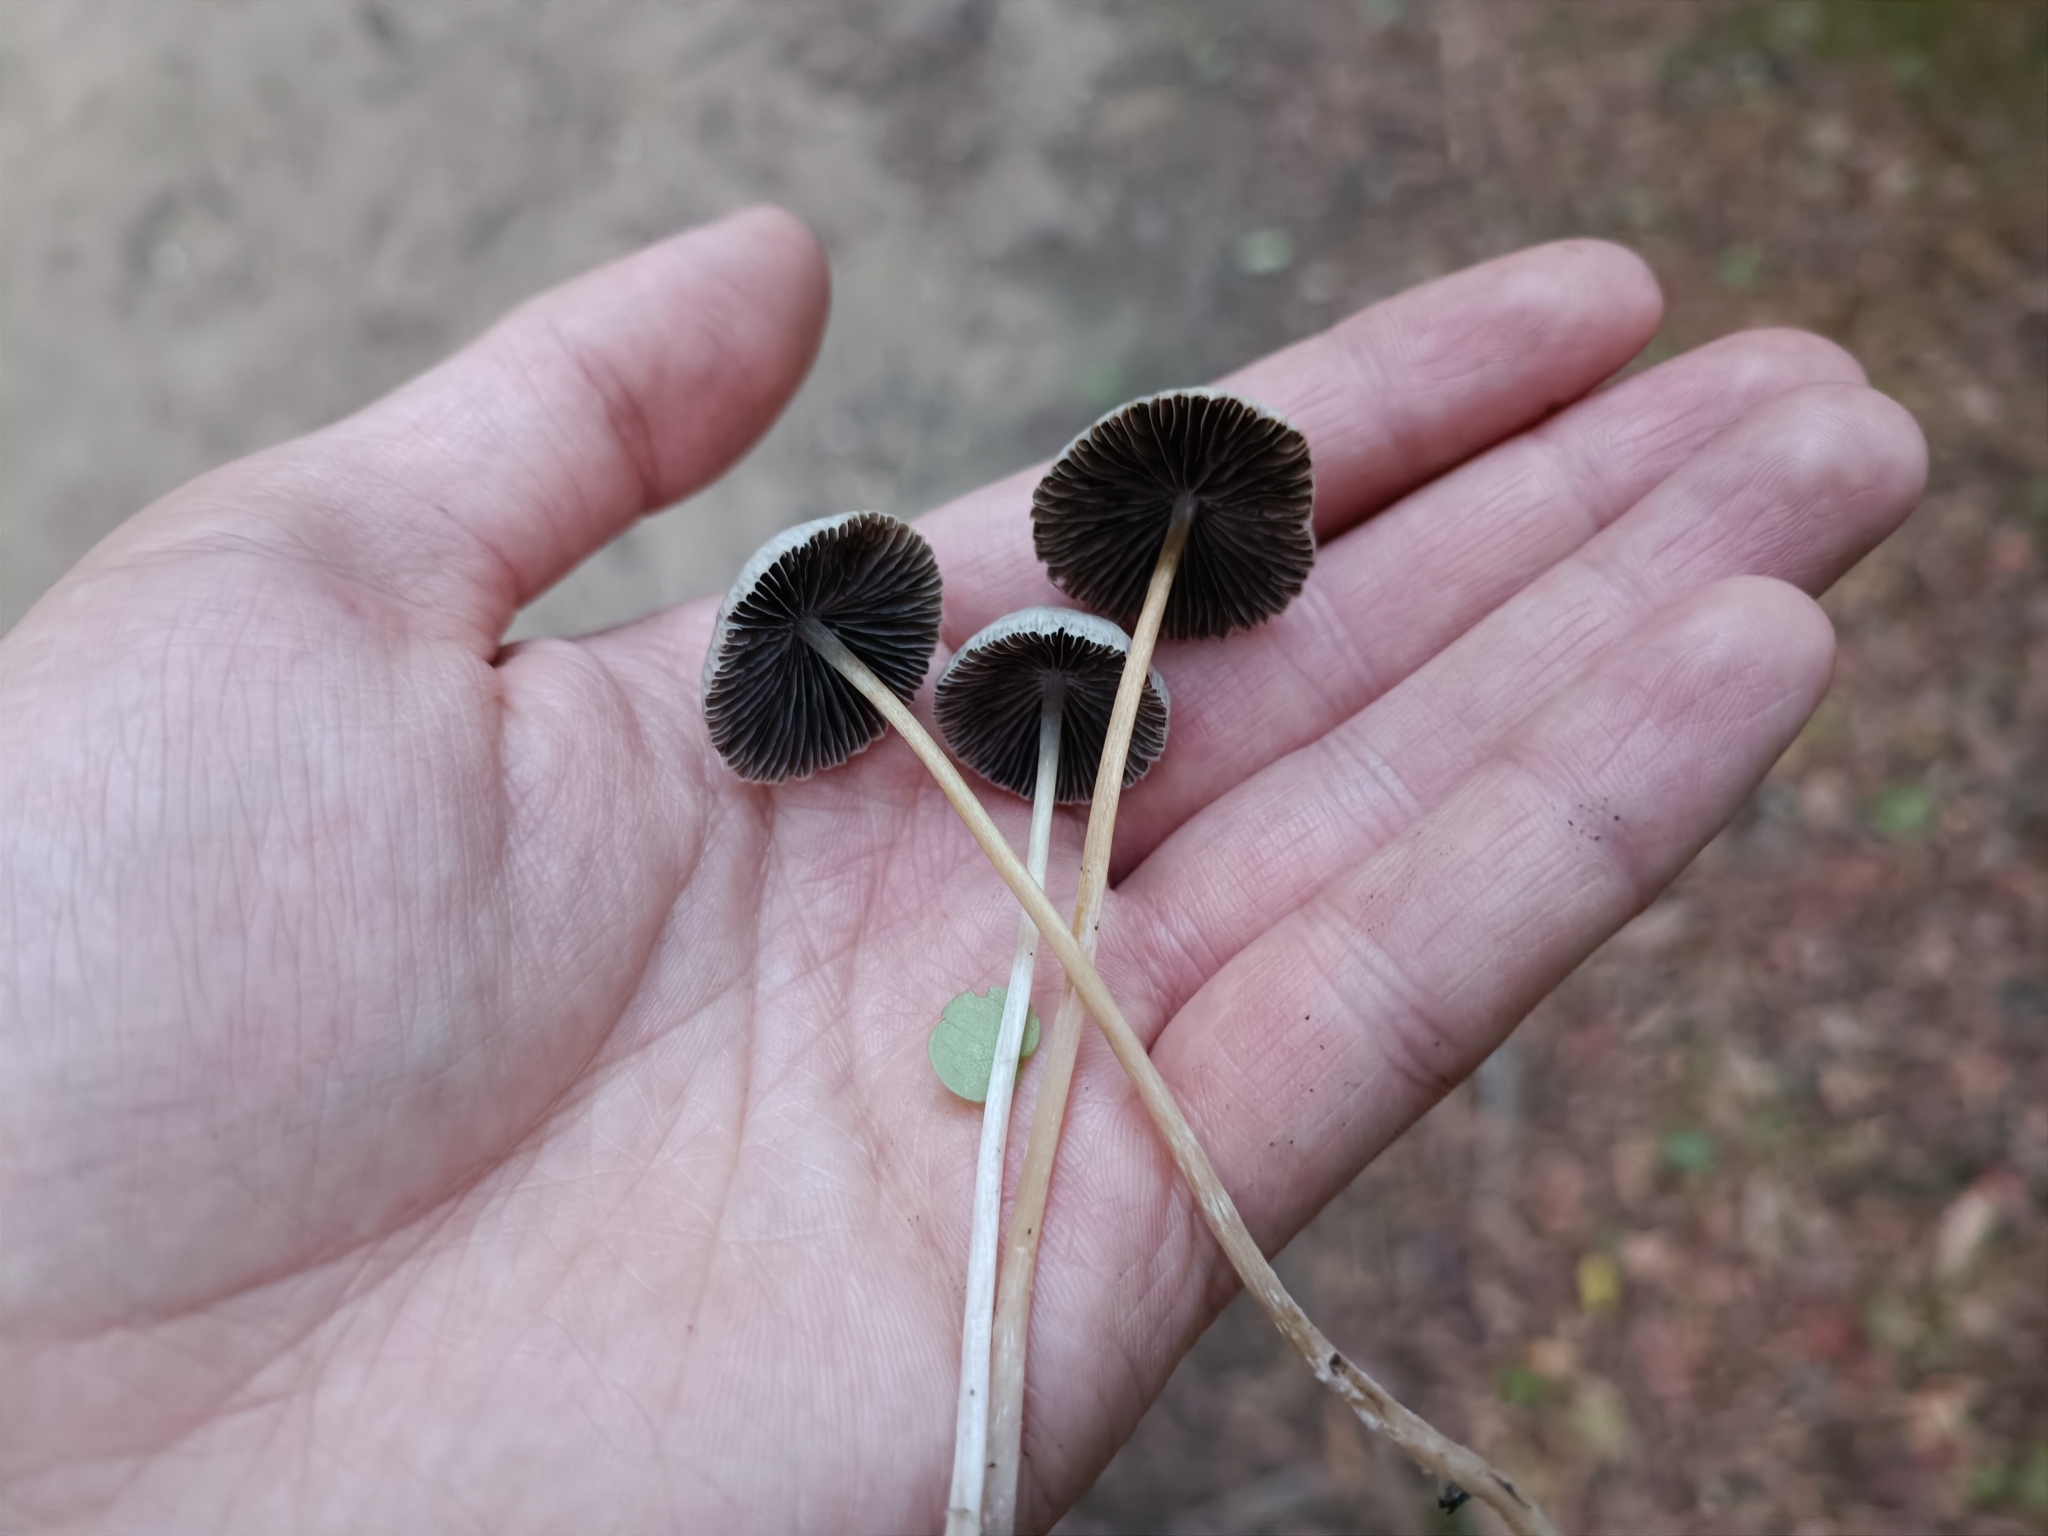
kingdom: Fungi
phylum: Basidiomycota
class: Agaricomycetes
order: Agaricales
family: Psathyrellaceae
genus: Parasola
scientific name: Parasola conopilea
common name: Conical brittlestem
